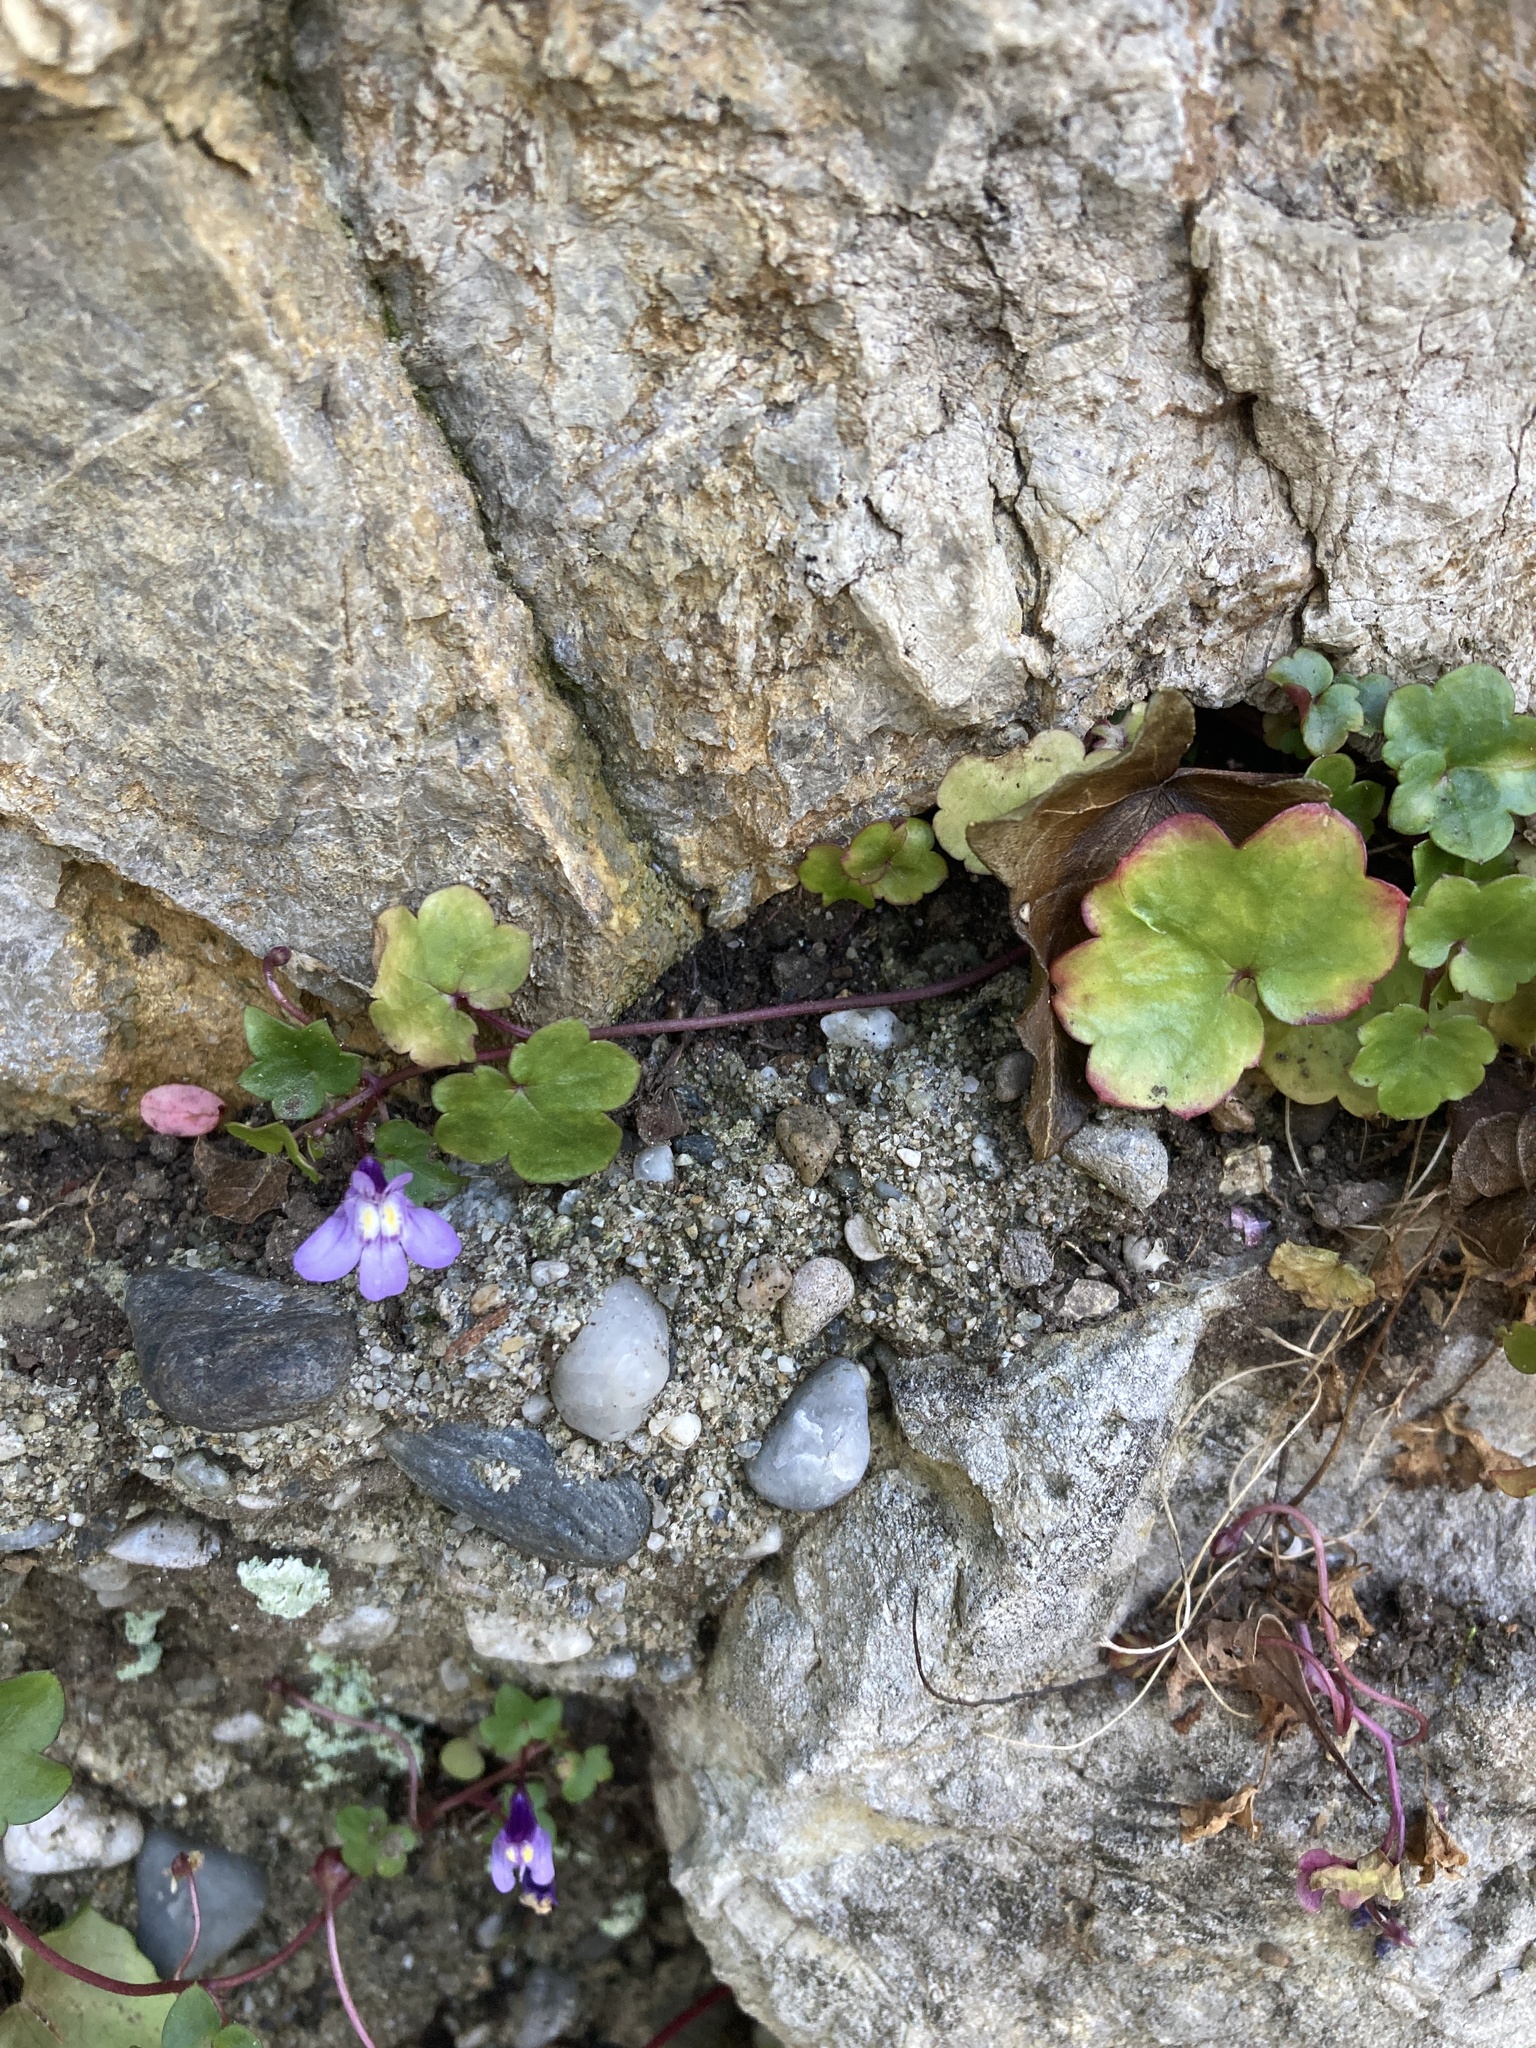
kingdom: Plantae
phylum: Tracheophyta
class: Magnoliopsida
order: Lamiales
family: Plantaginaceae
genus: Cymbalaria
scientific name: Cymbalaria muralis
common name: Ivy-leaved toadflax
